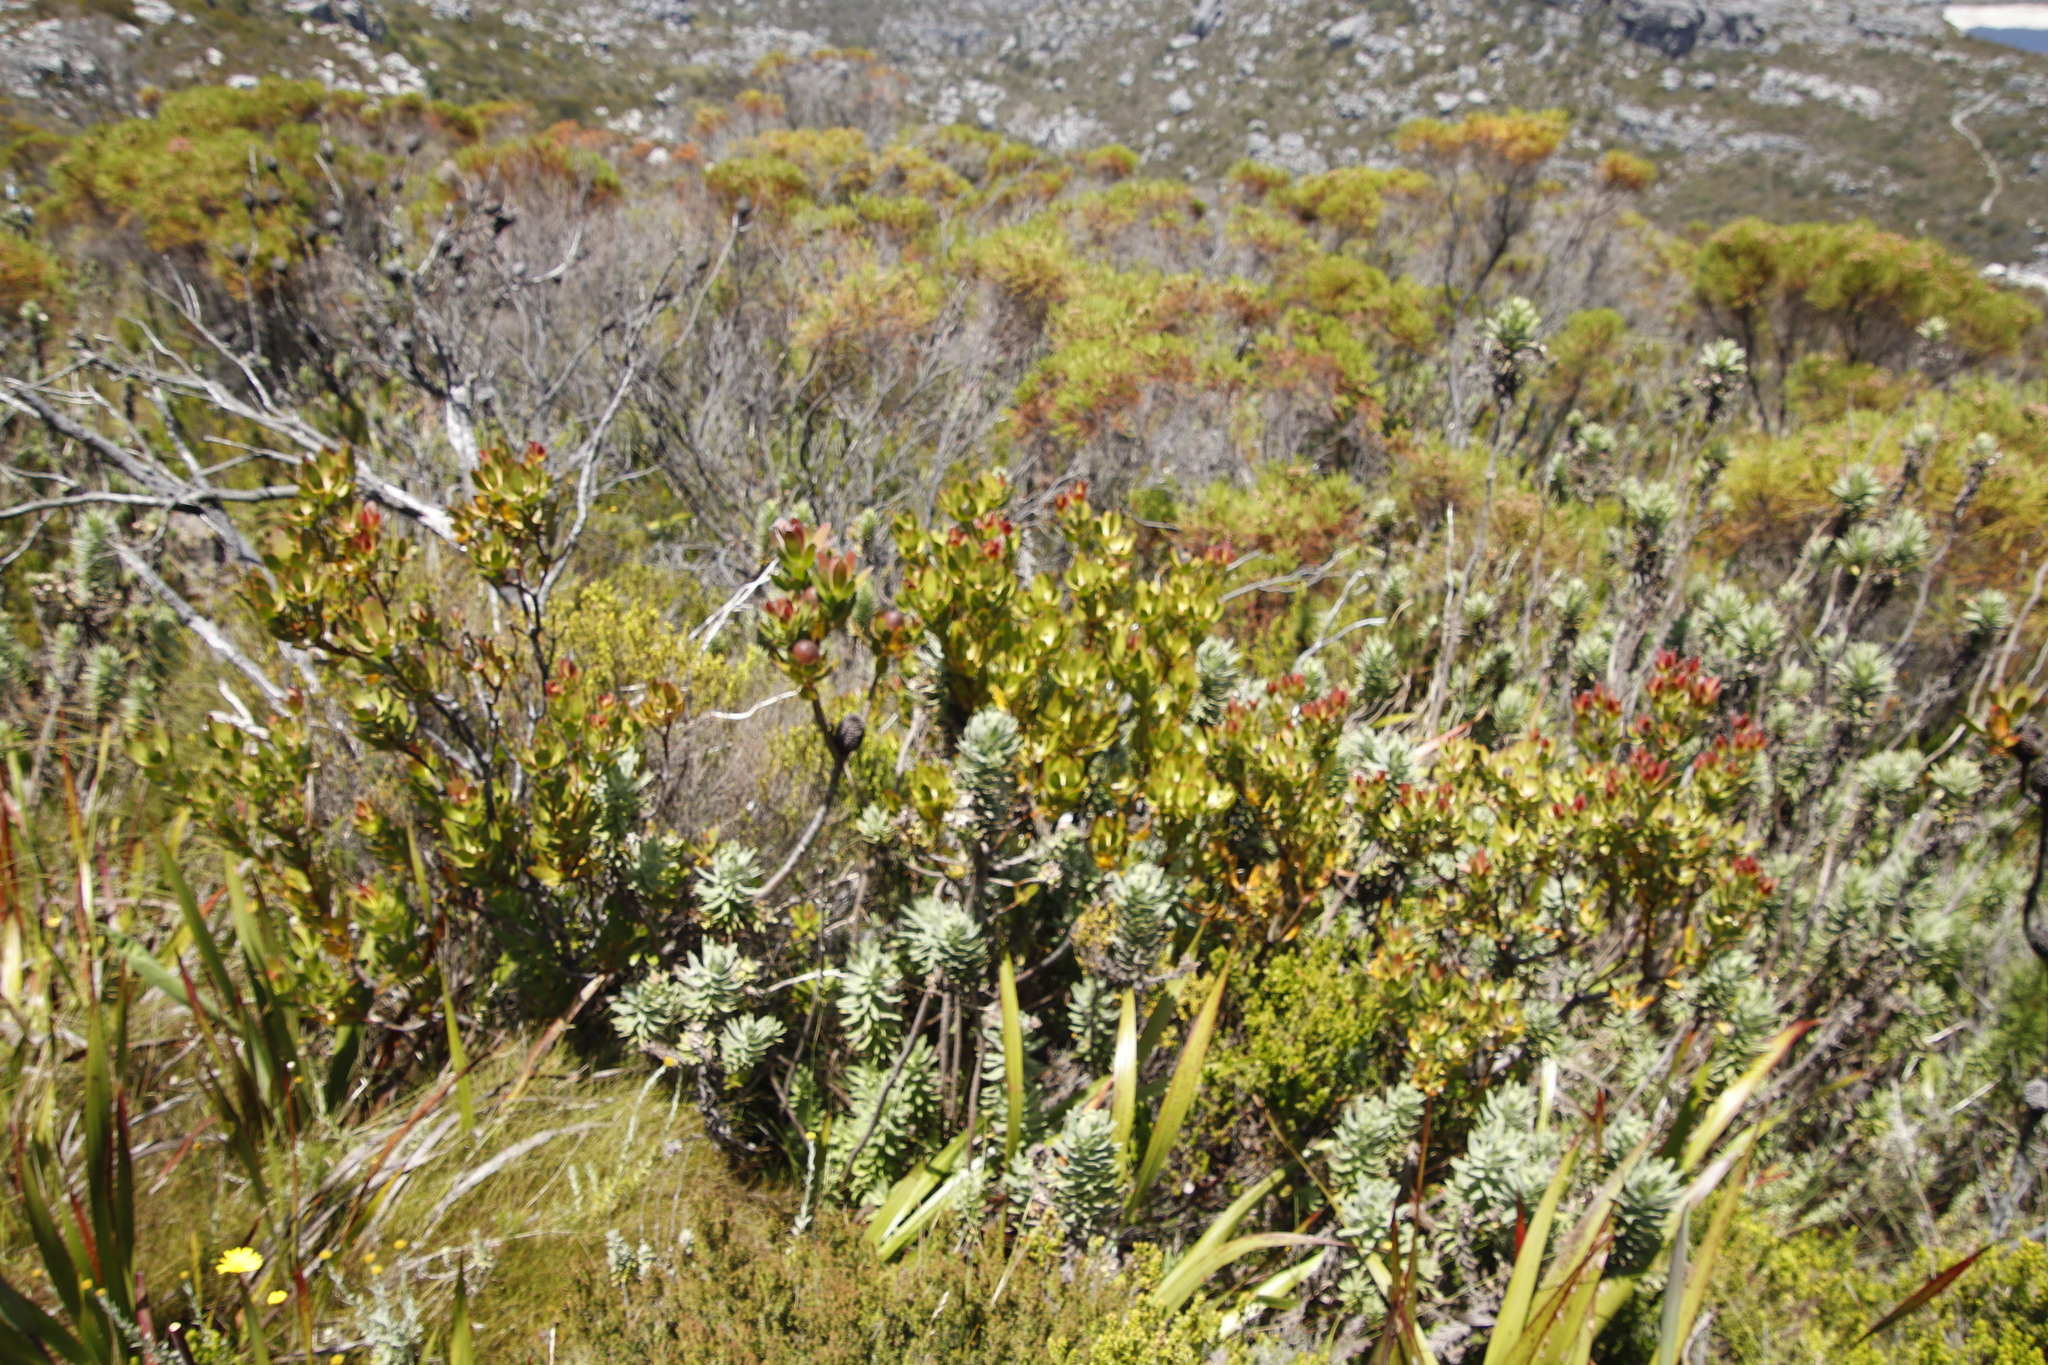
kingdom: Plantae
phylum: Tracheophyta
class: Magnoliopsida
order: Proteales
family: Proteaceae
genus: Leucadendron
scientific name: Leucadendron strobilinum
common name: Mountain rose
